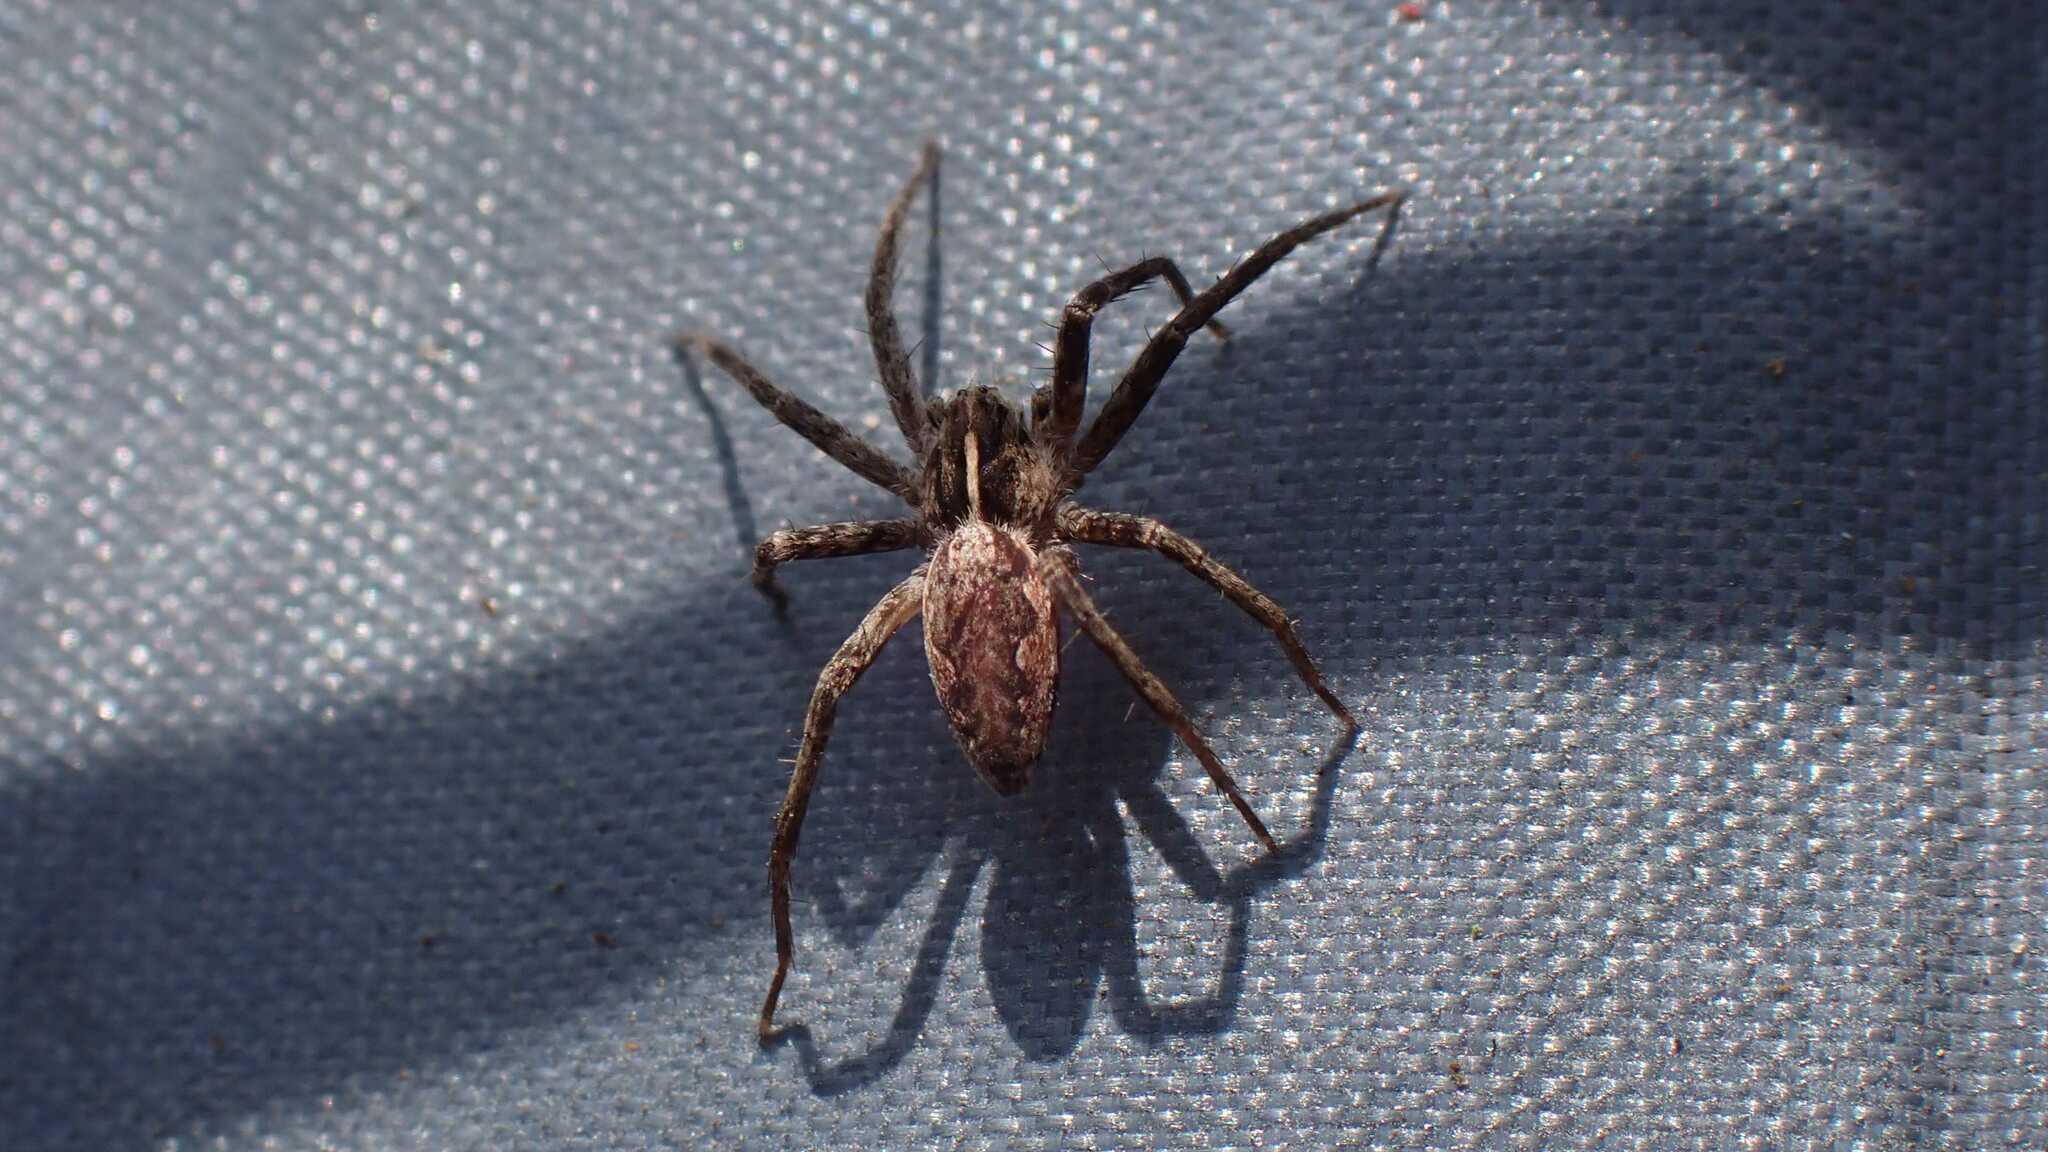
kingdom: Animalia
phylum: Arthropoda
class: Arachnida
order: Araneae
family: Pisauridae
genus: Pisaura
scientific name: Pisaura mirabilis
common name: Tent spider
